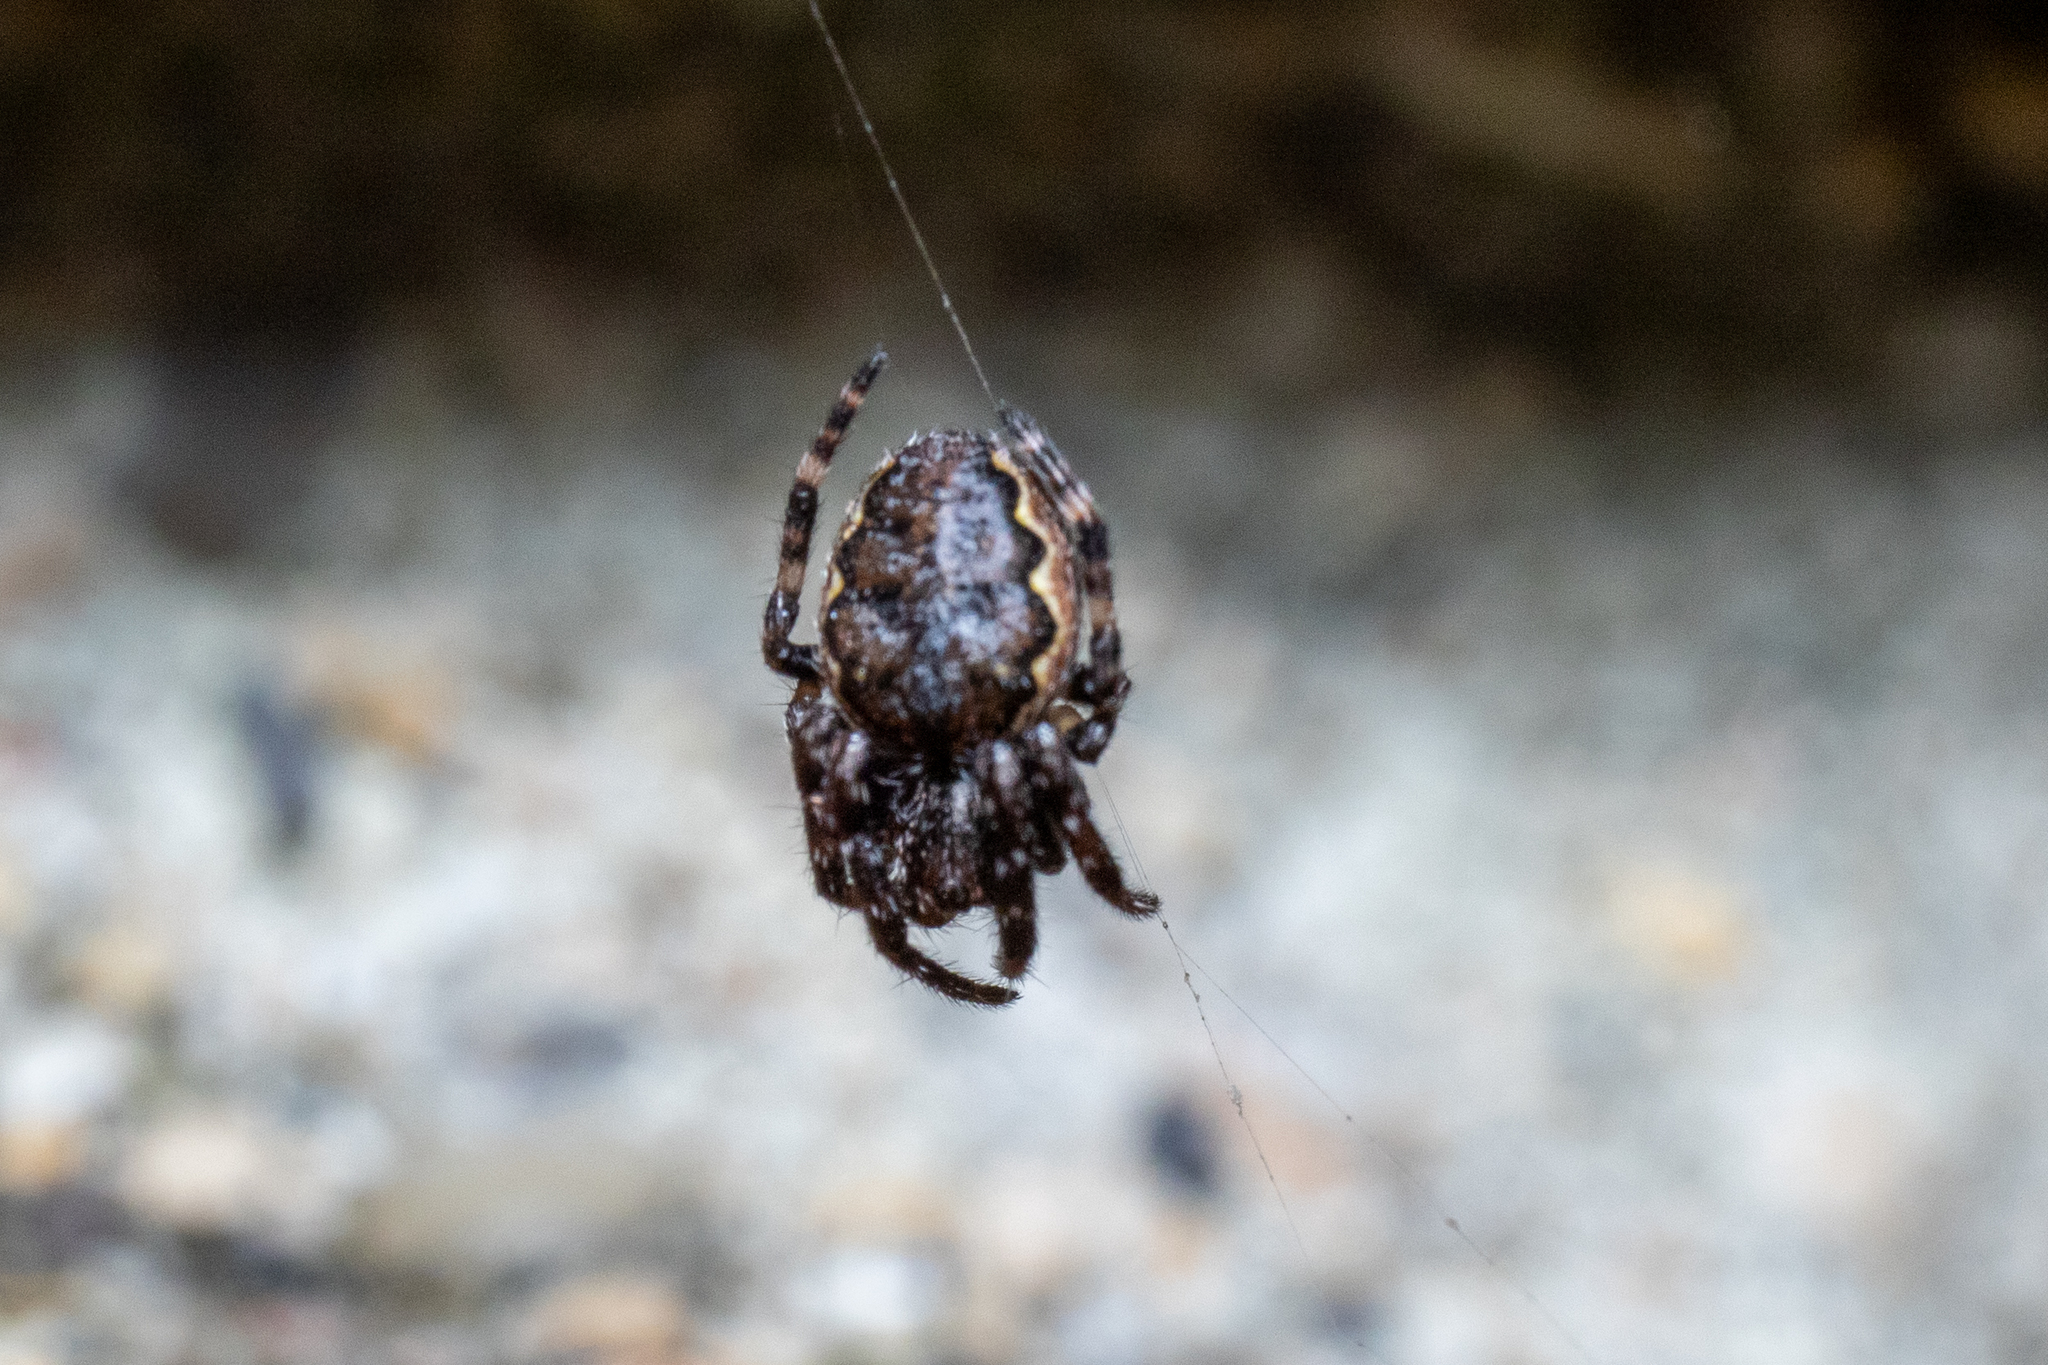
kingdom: Animalia
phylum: Arthropoda
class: Arachnida
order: Araneae
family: Araneidae
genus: Nuctenea
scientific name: Nuctenea umbratica
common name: Toad spider
